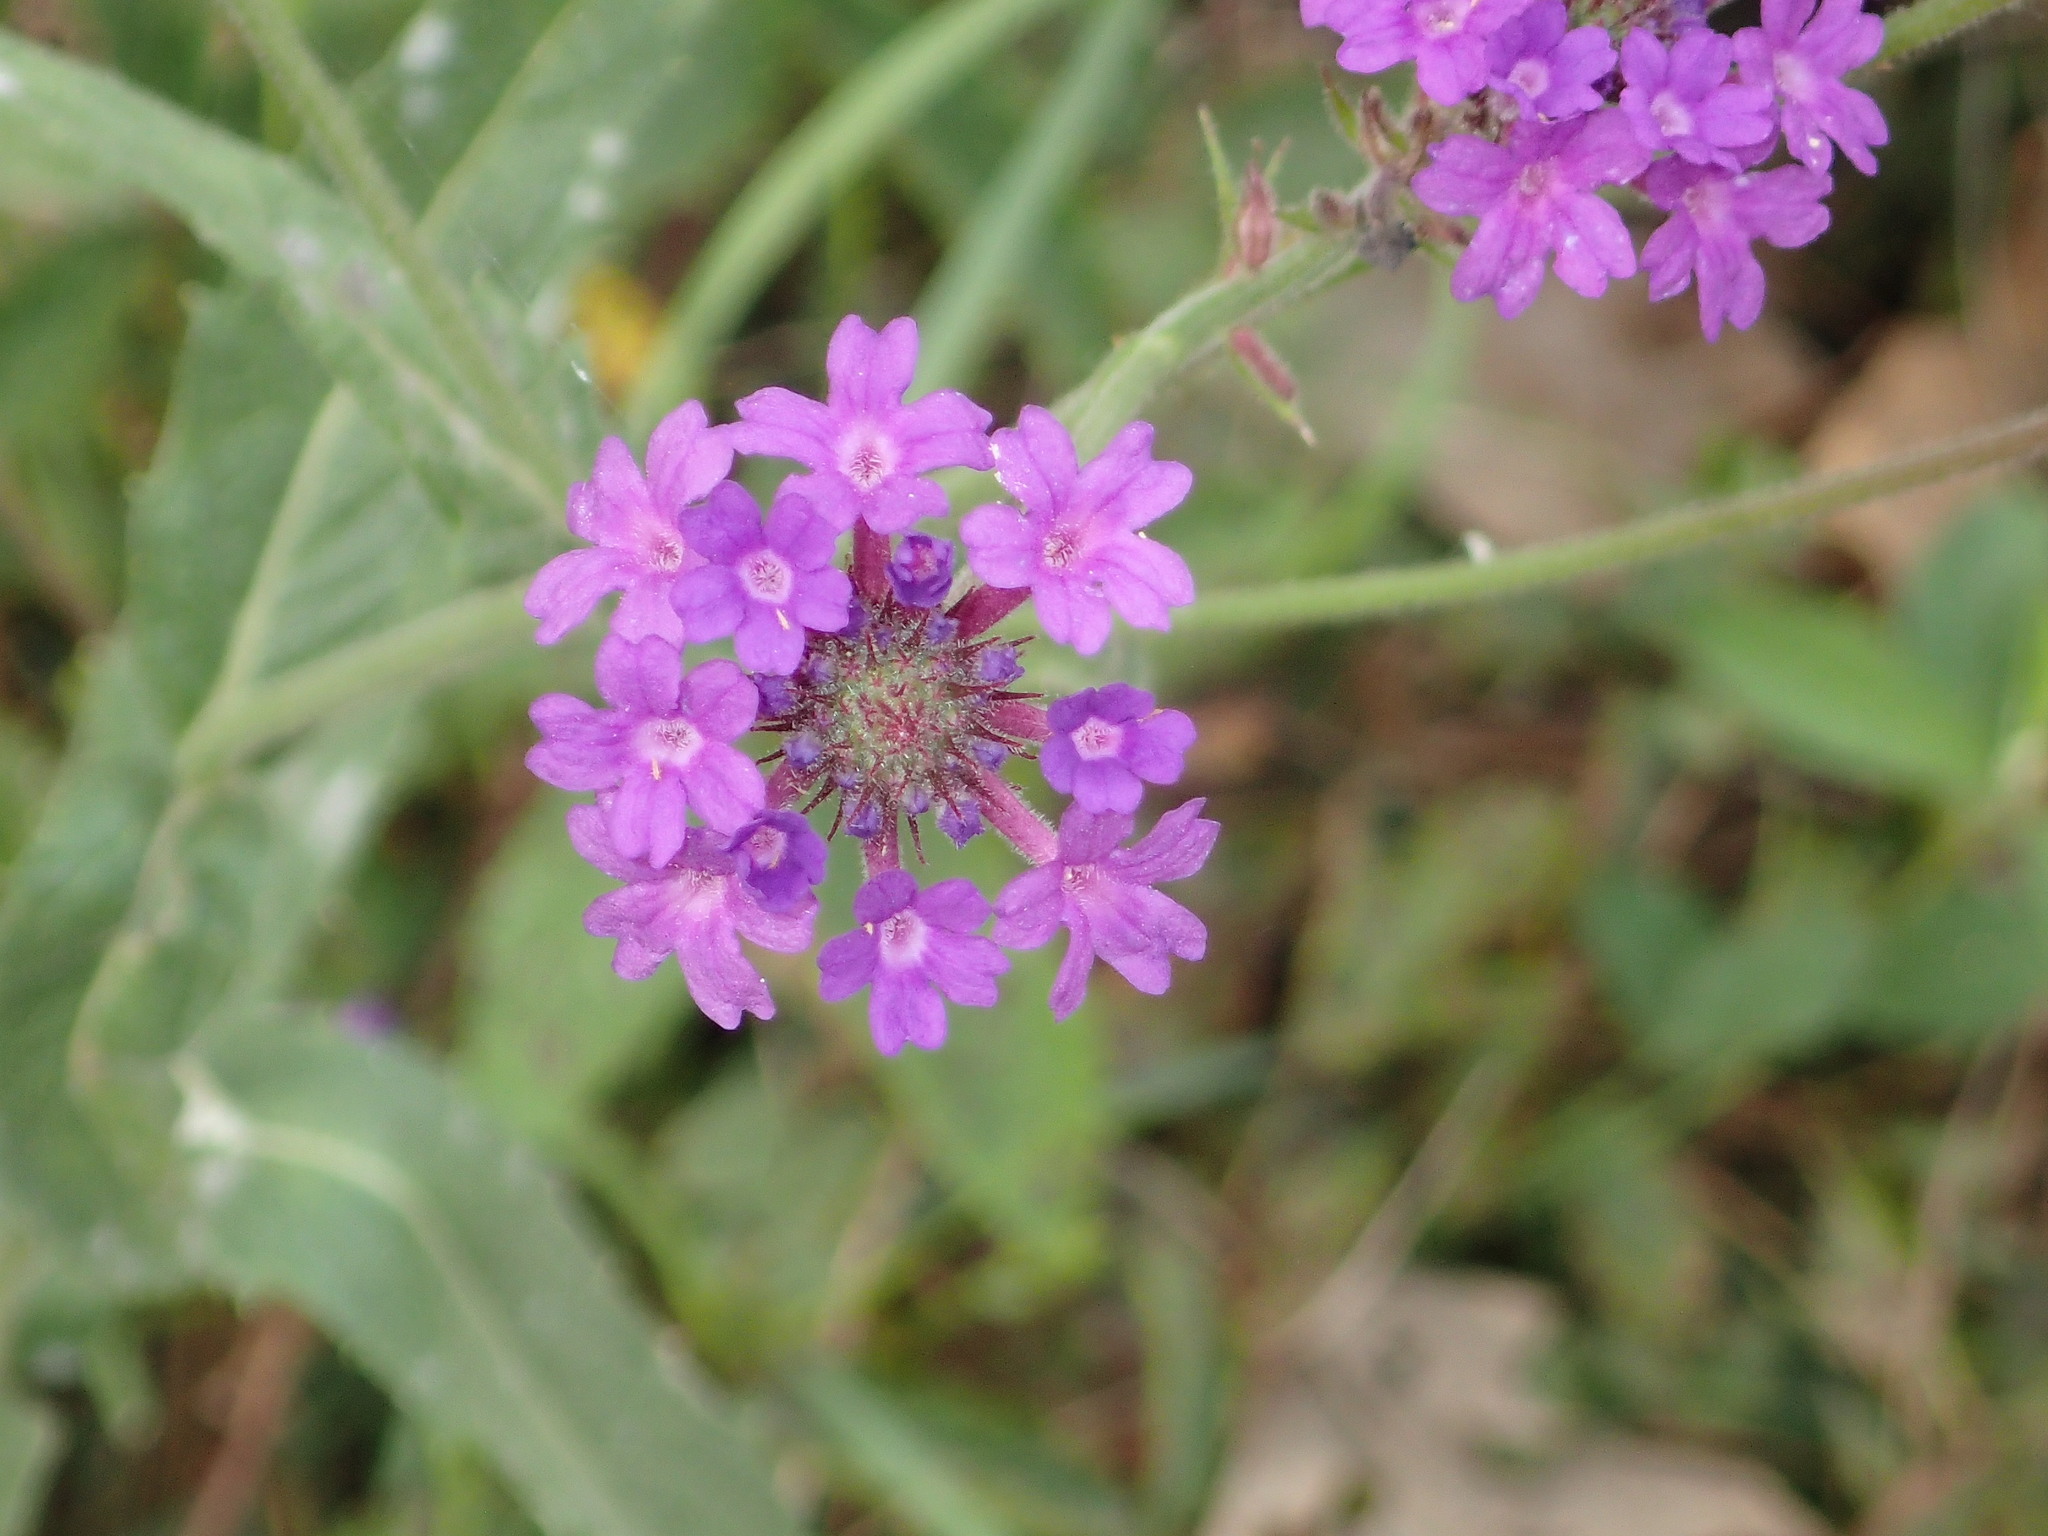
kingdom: Plantae
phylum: Tracheophyta
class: Magnoliopsida
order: Lamiales
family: Verbenaceae
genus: Verbena
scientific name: Verbena rigida
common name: Slender vervain
